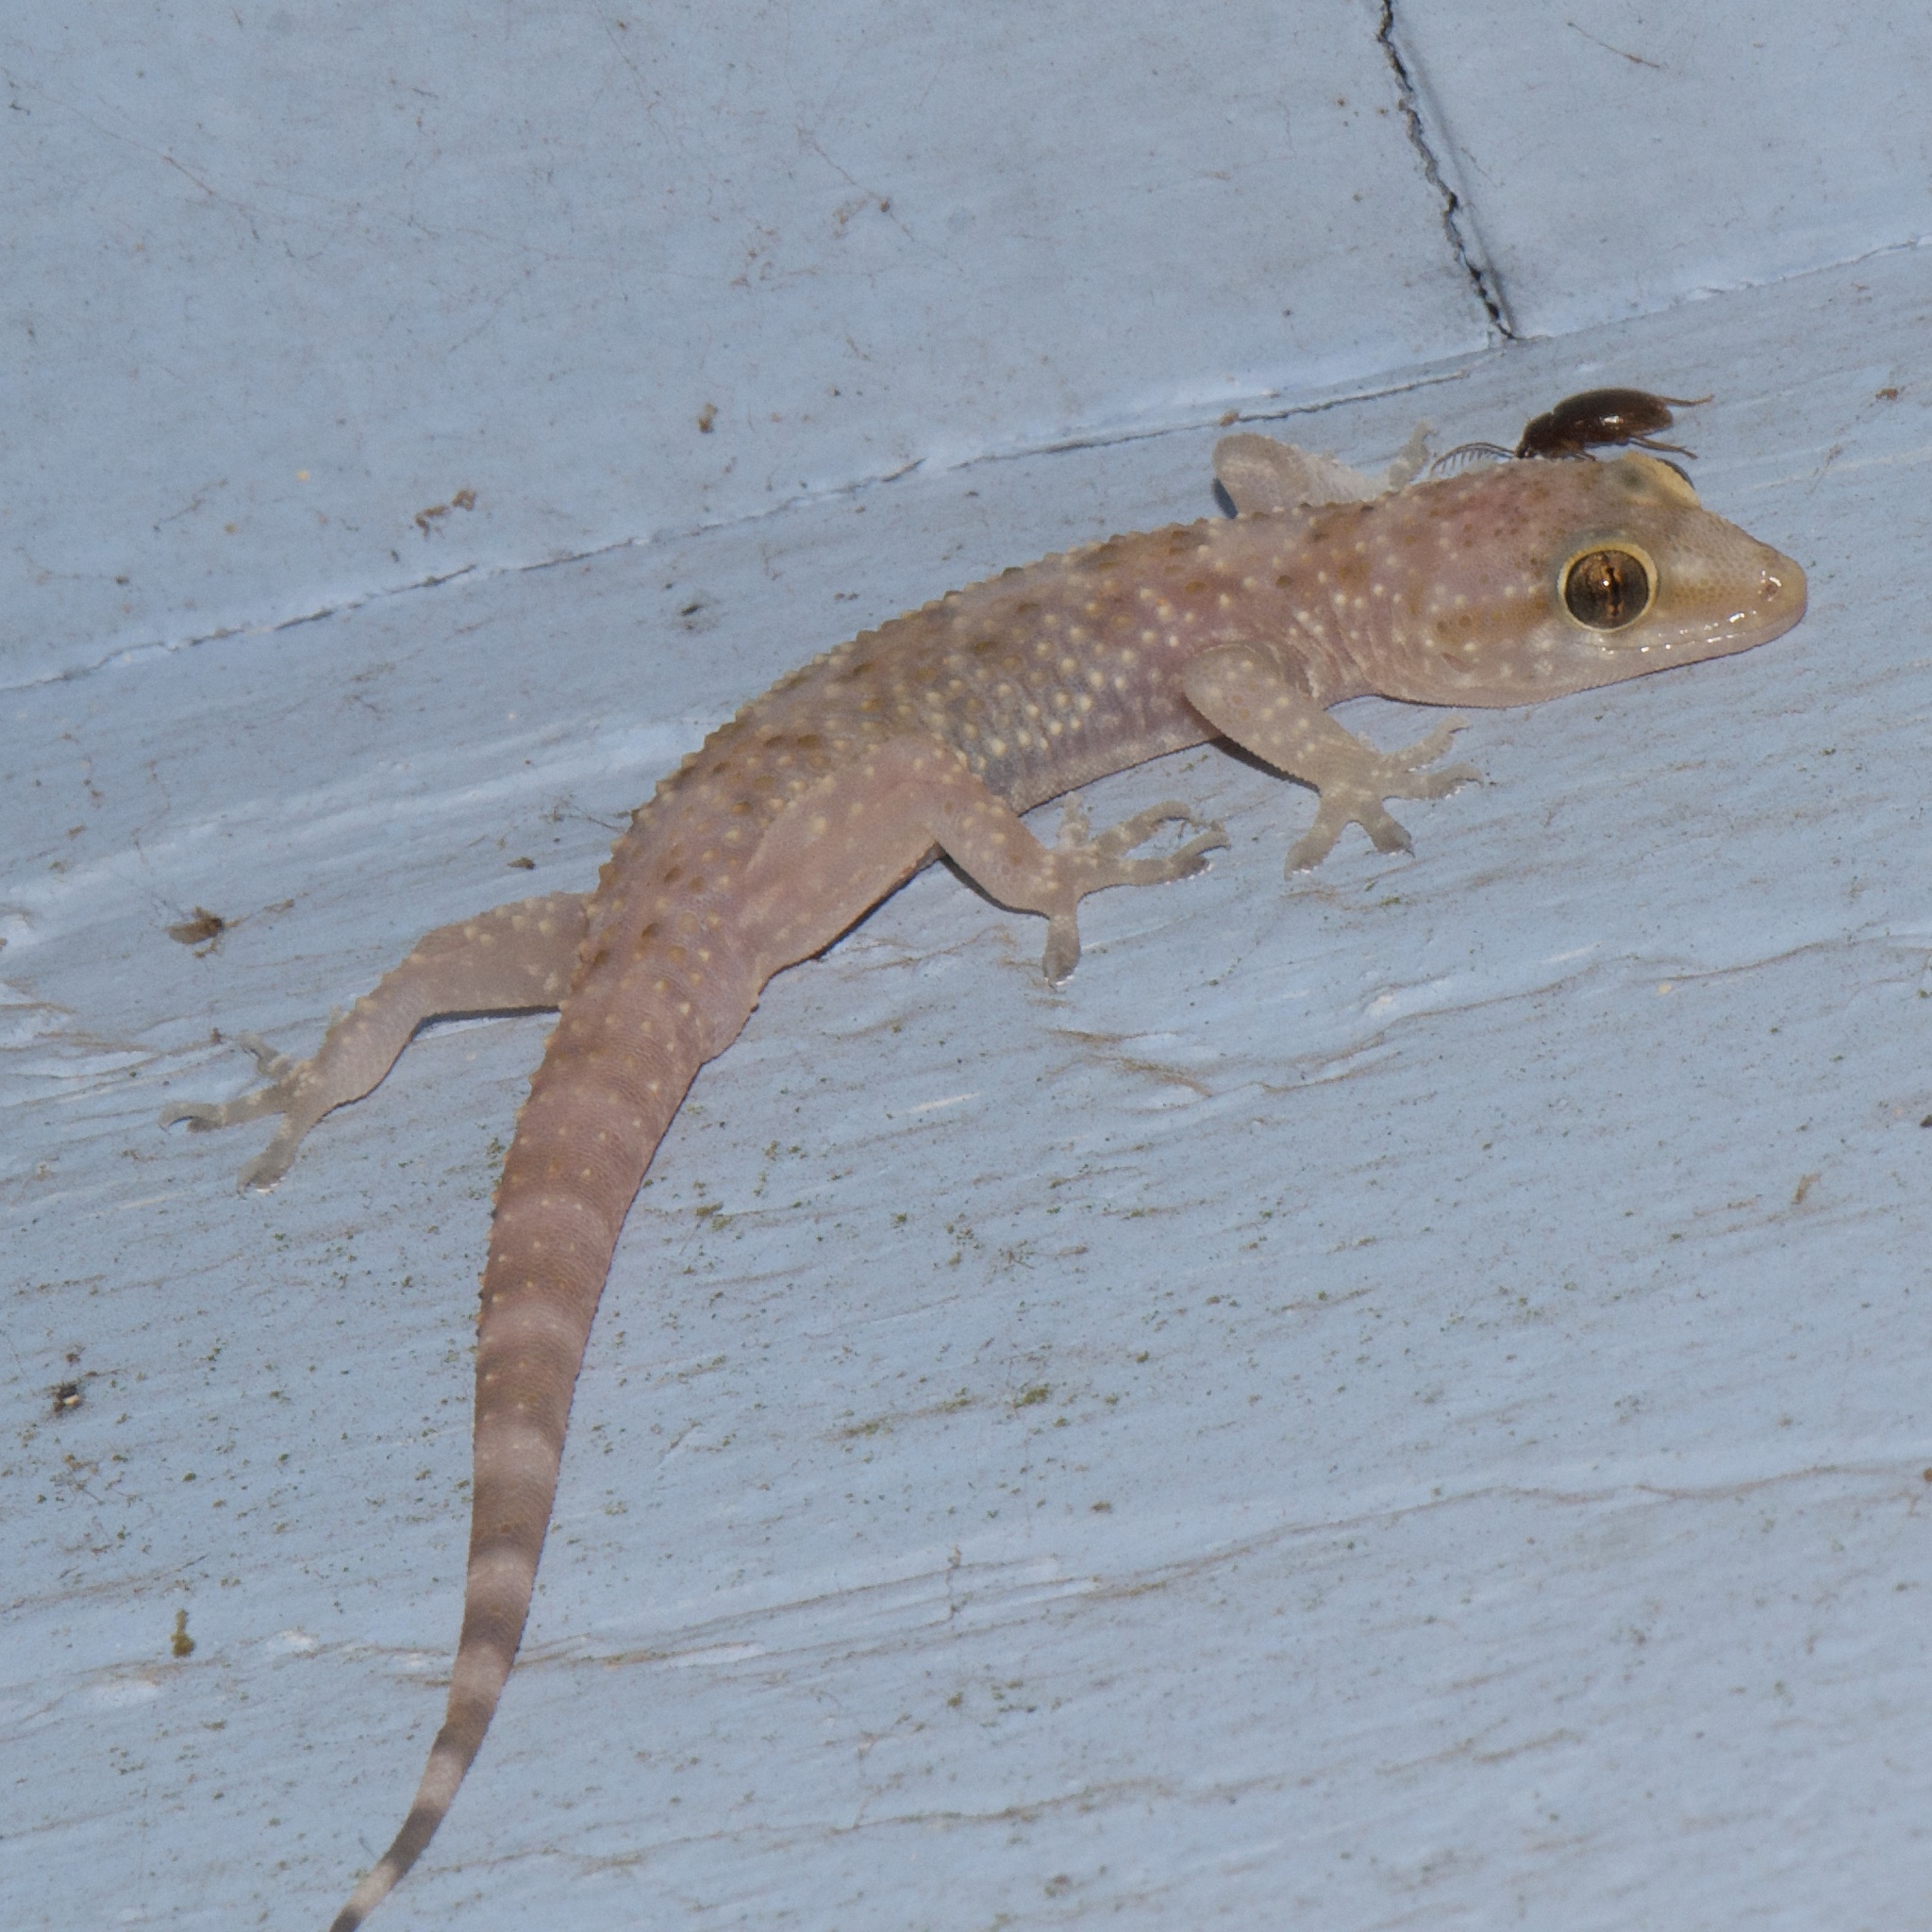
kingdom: Animalia
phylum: Chordata
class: Squamata
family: Gekkonidae
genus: Hemidactylus
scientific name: Hemidactylus turcicus
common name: Turkish gecko
